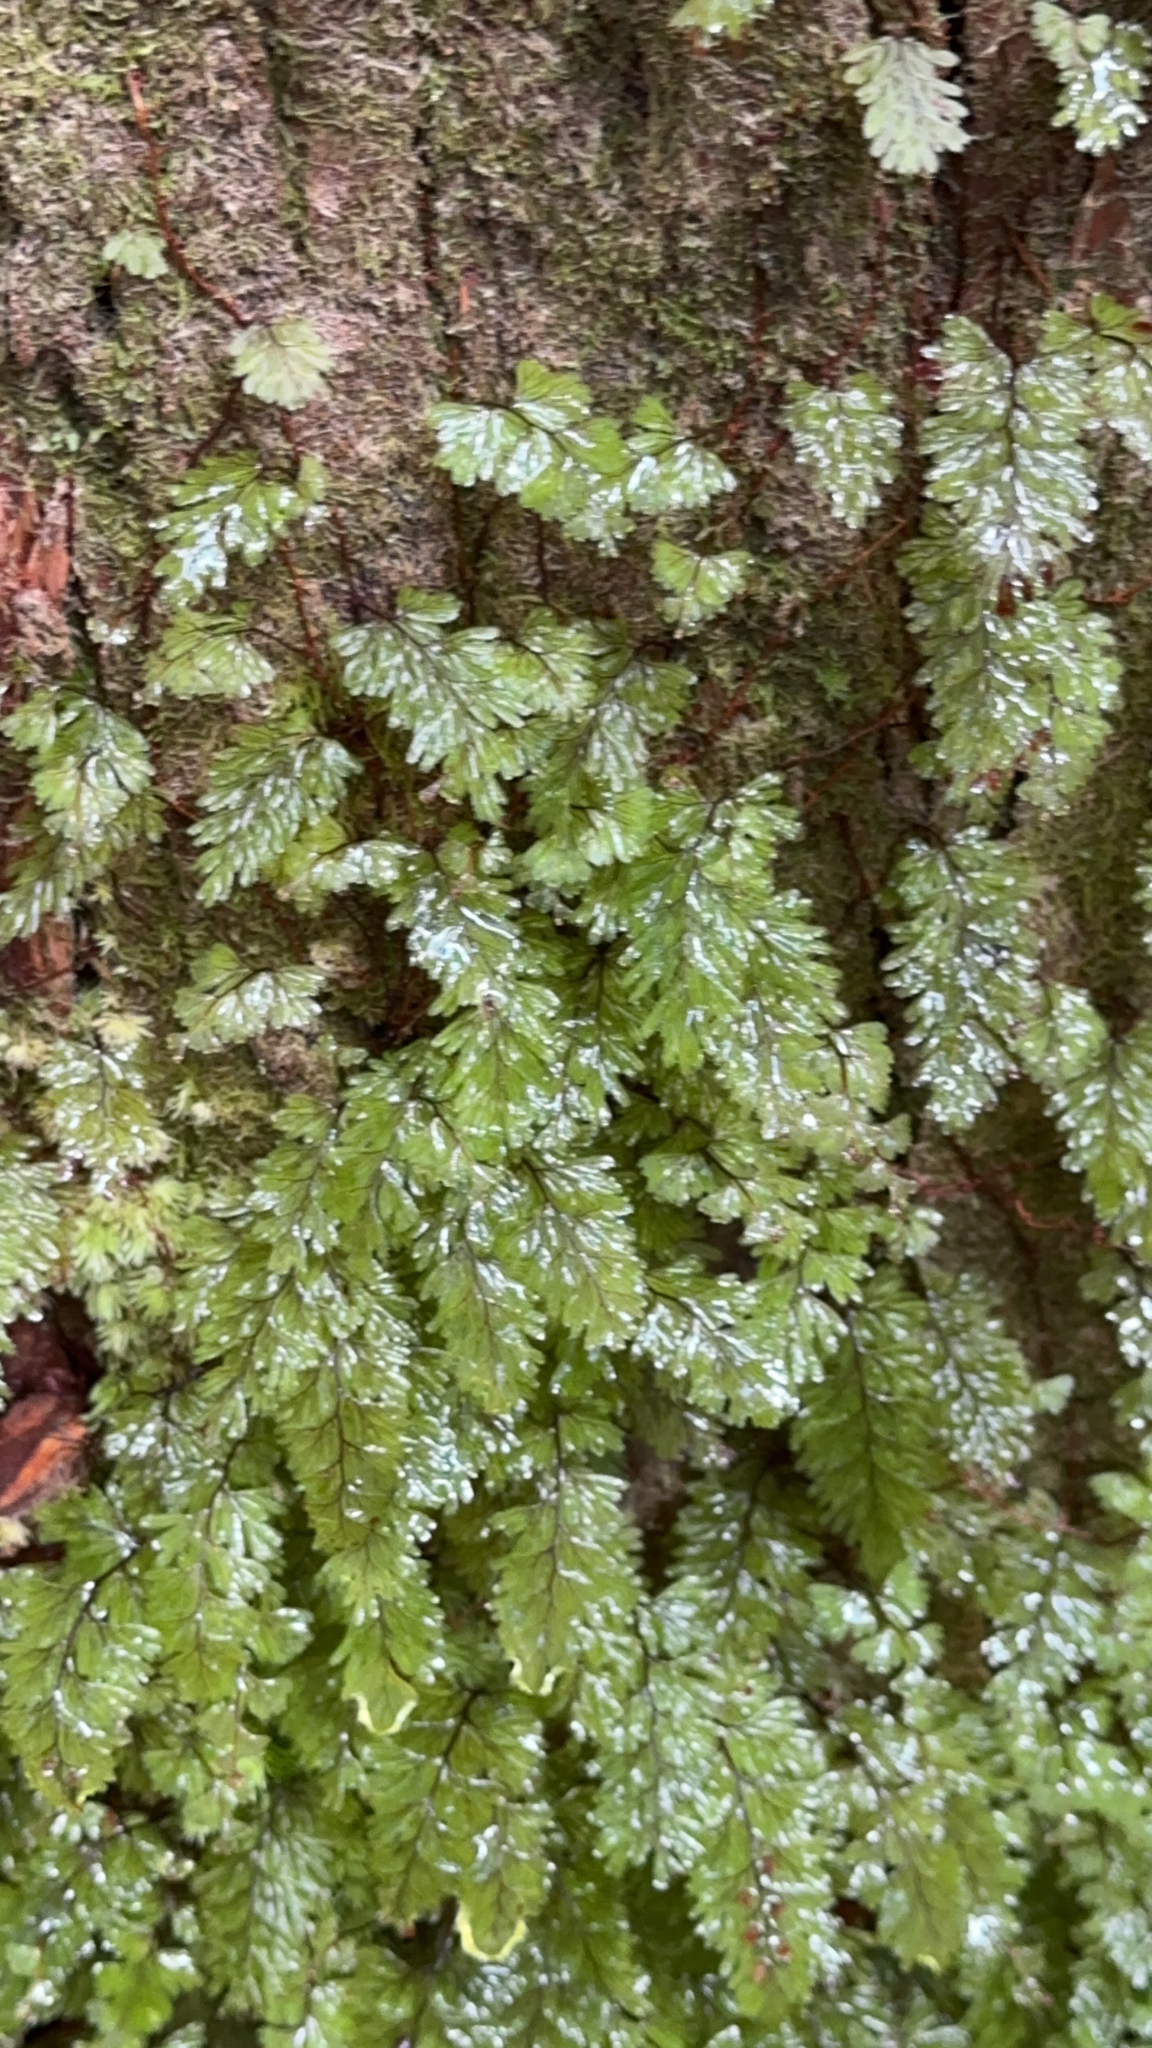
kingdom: Plantae
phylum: Tracheophyta
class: Polypodiopsida
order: Hymenophyllales
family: Hymenophyllaceae
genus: Hymenophyllum
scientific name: Hymenophyllum tunbrigense
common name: Tunbridge filmy fern
